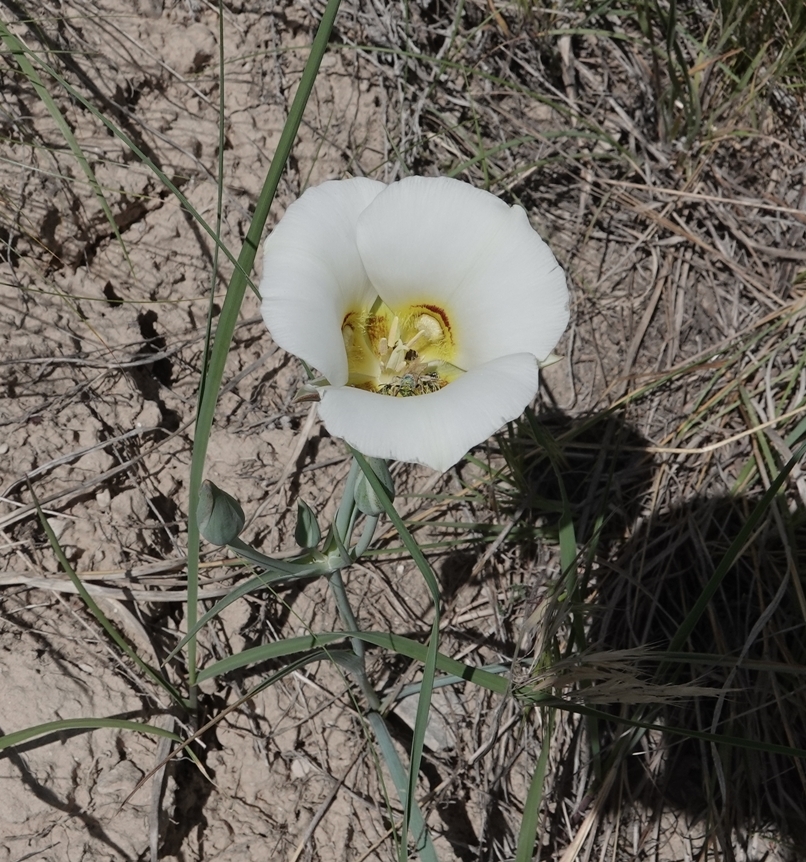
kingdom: Plantae
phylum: Tracheophyta
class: Liliopsida
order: Liliales
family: Liliaceae
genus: Calochortus
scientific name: Calochortus nuttallii
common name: Sego-lily
